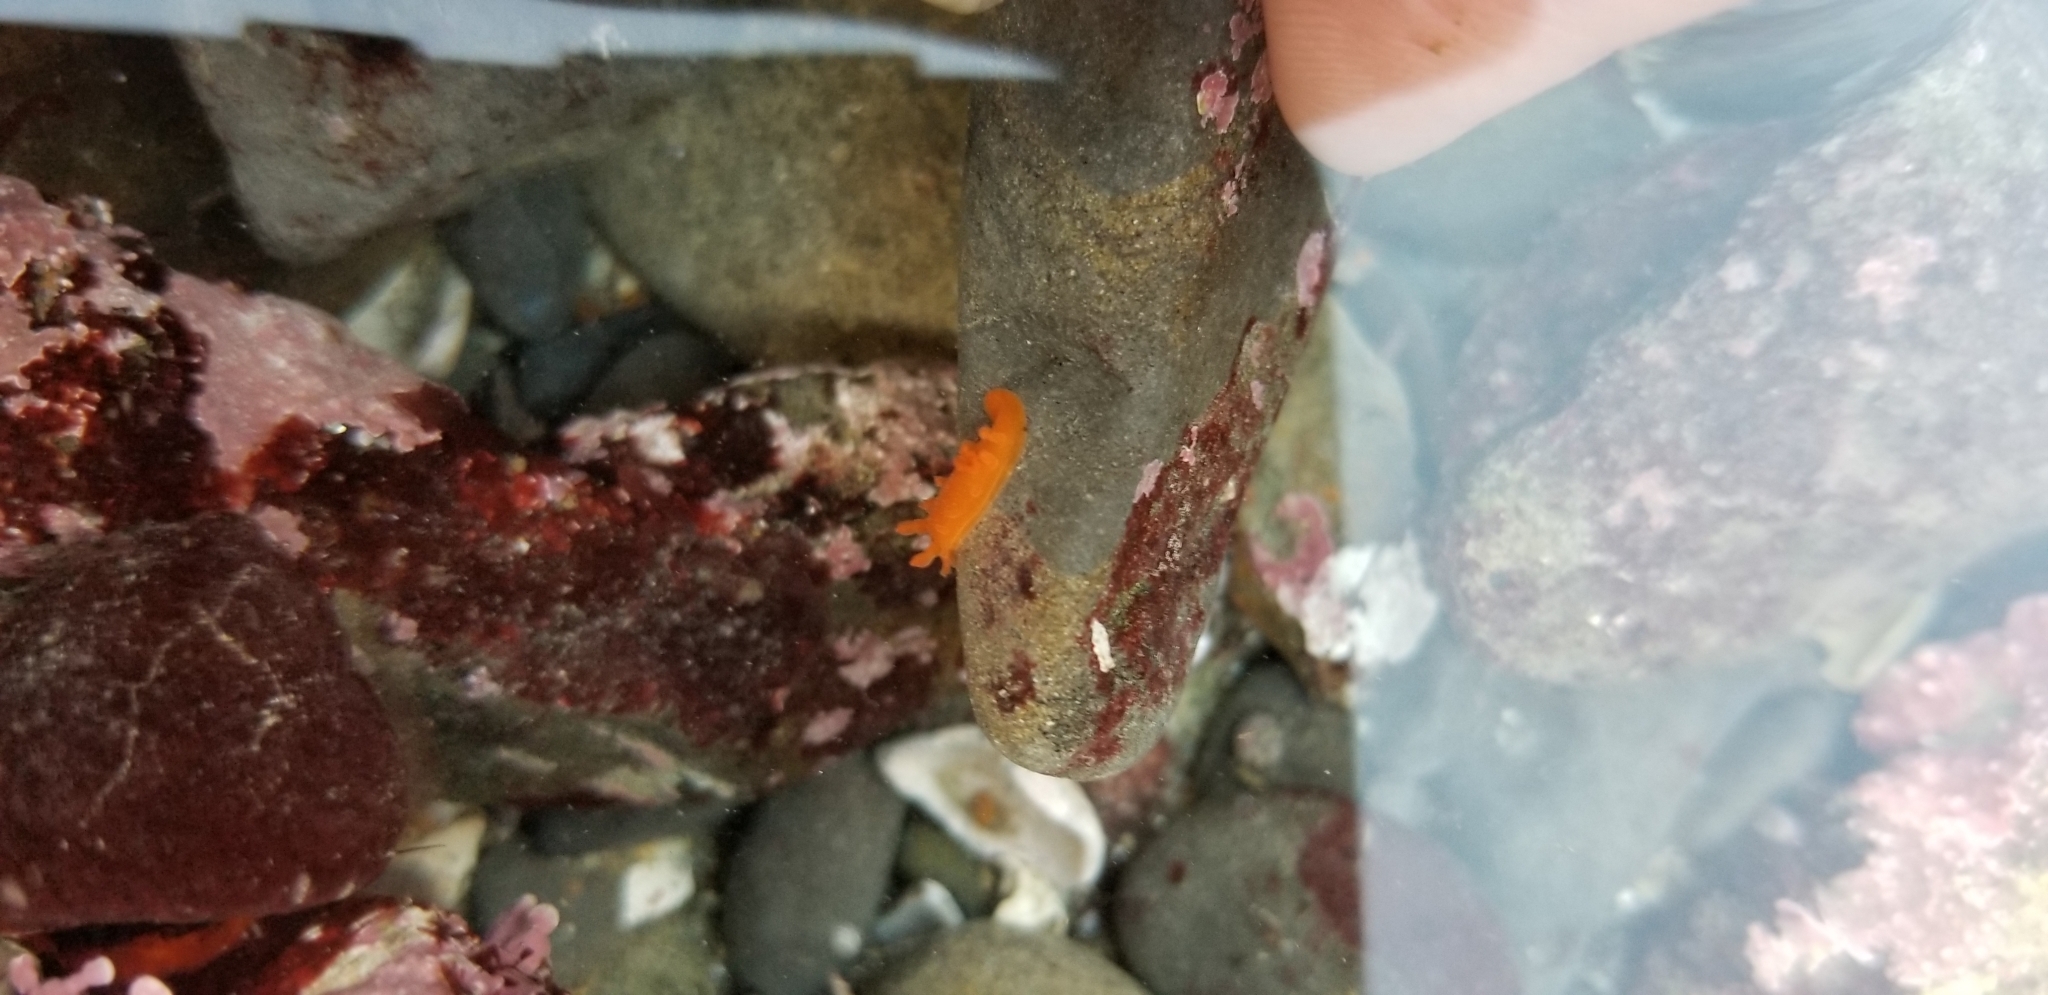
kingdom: Animalia
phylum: Mollusca
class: Gastropoda
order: Nudibranchia
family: Polyceridae
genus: Triopha
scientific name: Triopha maculata
